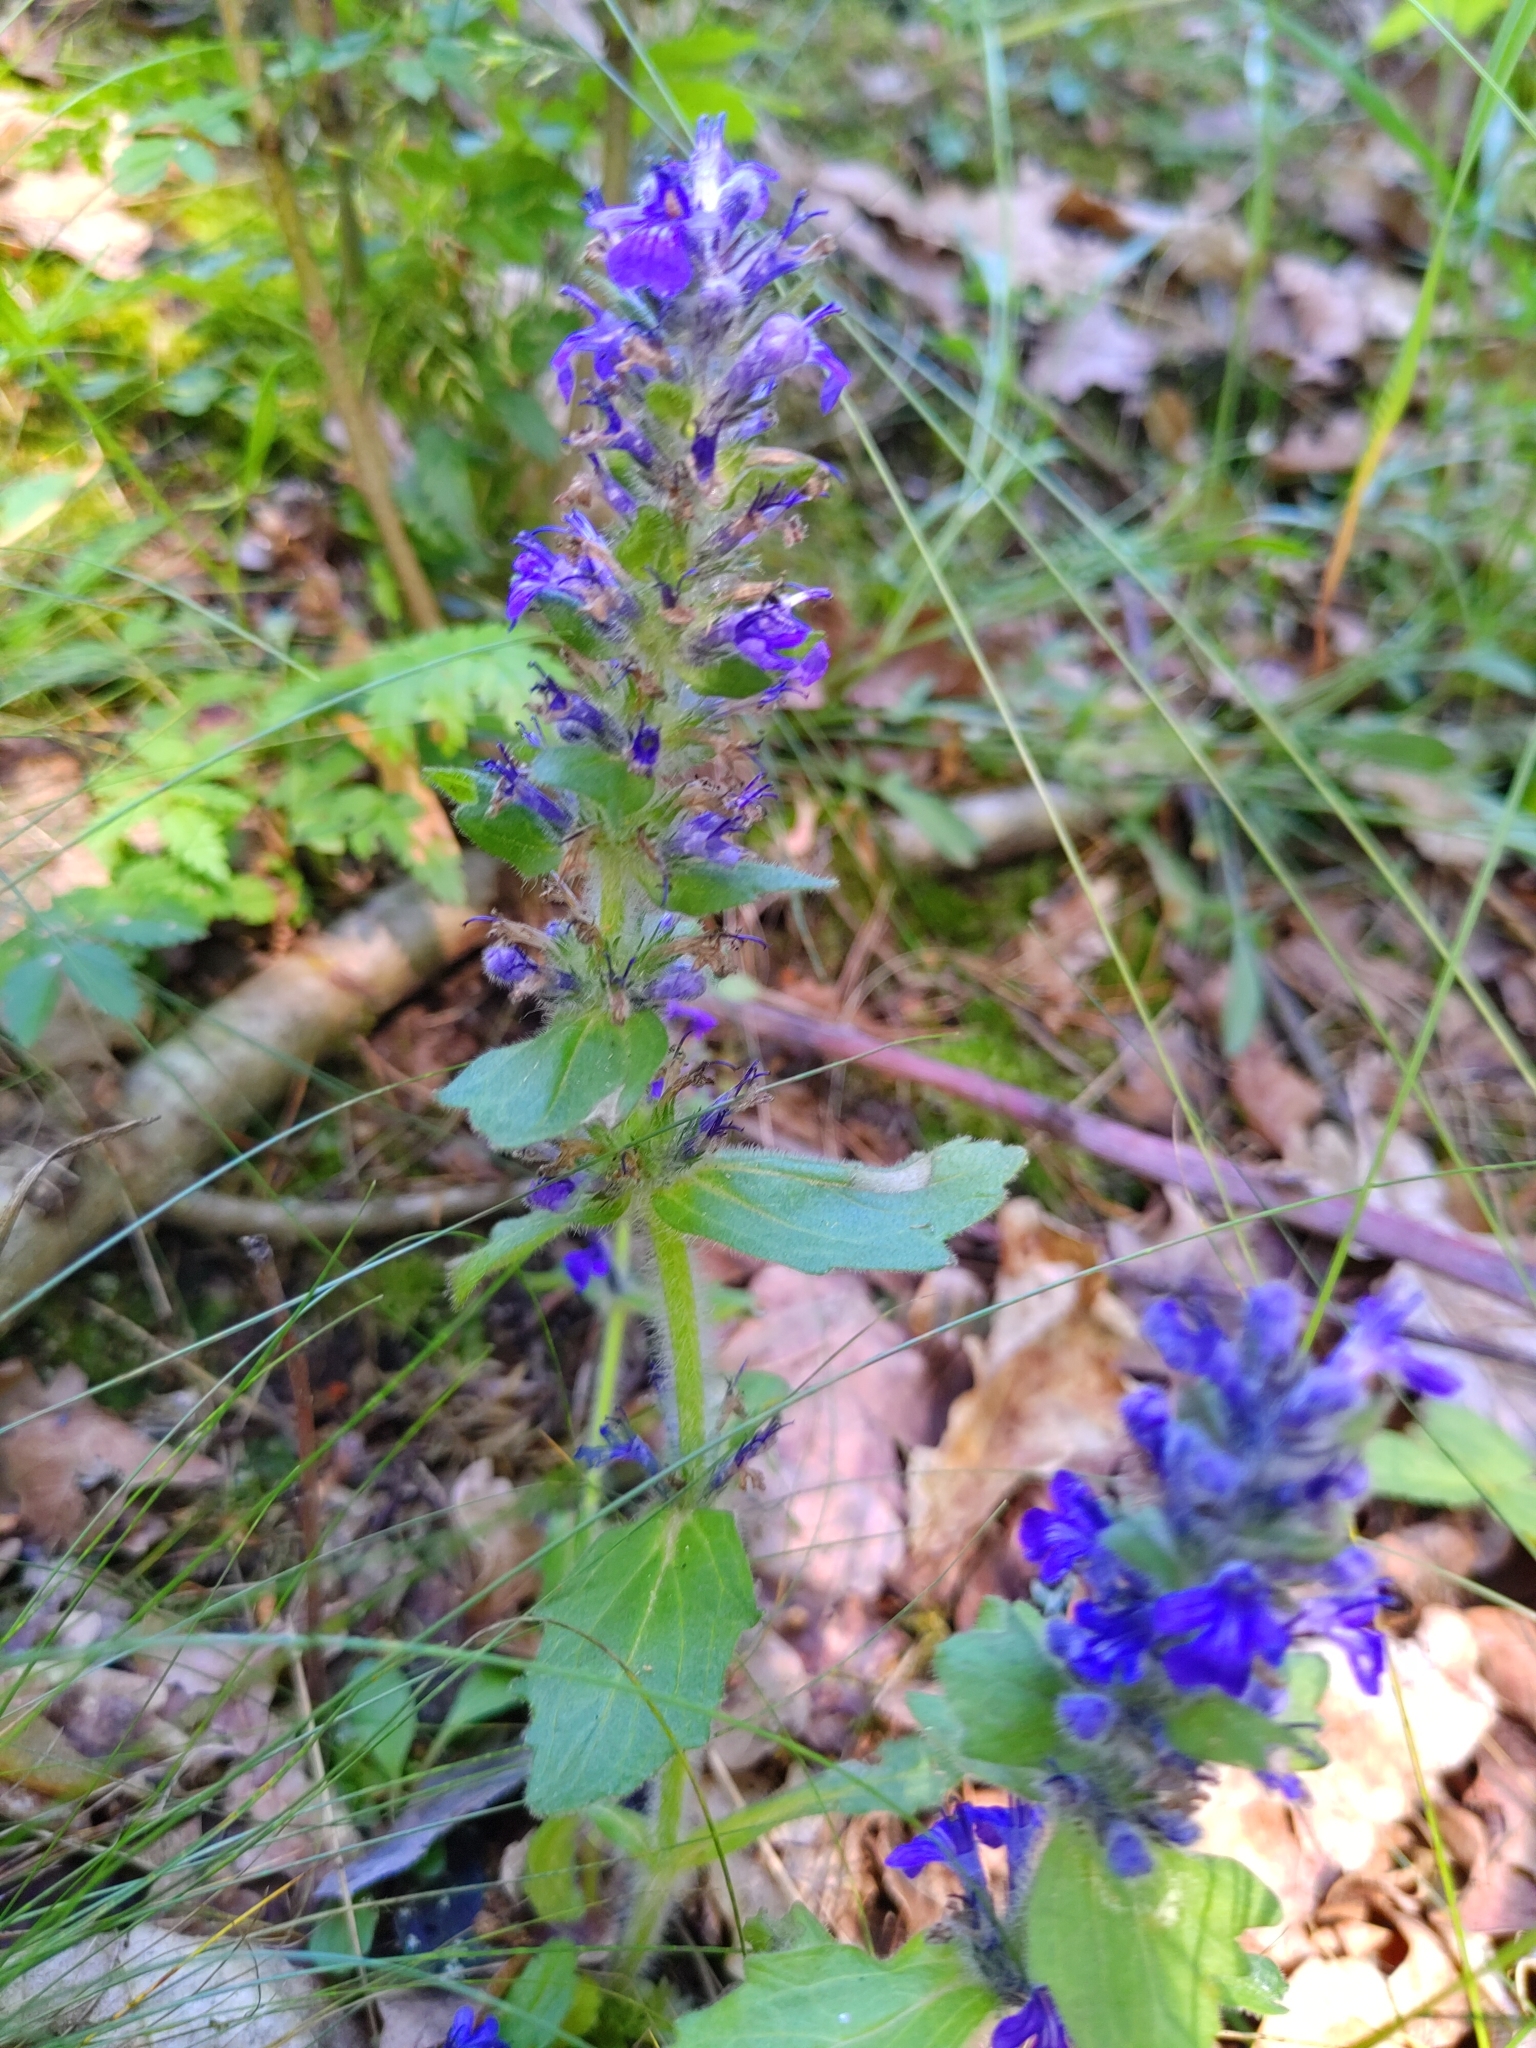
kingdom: Plantae
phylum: Tracheophyta
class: Magnoliopsida
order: Lamiales
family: Lamiaceae
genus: Ajuga
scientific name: Ajuga genevensis
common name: Blue bugle
